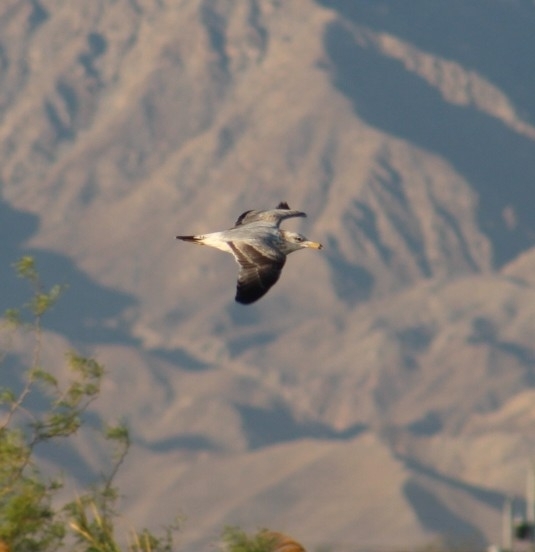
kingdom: Animalia
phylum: Chordata
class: Aves
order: Charadriiformes
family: Laridae
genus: Larus
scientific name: Larus delawarensis
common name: Ring-billed gull
